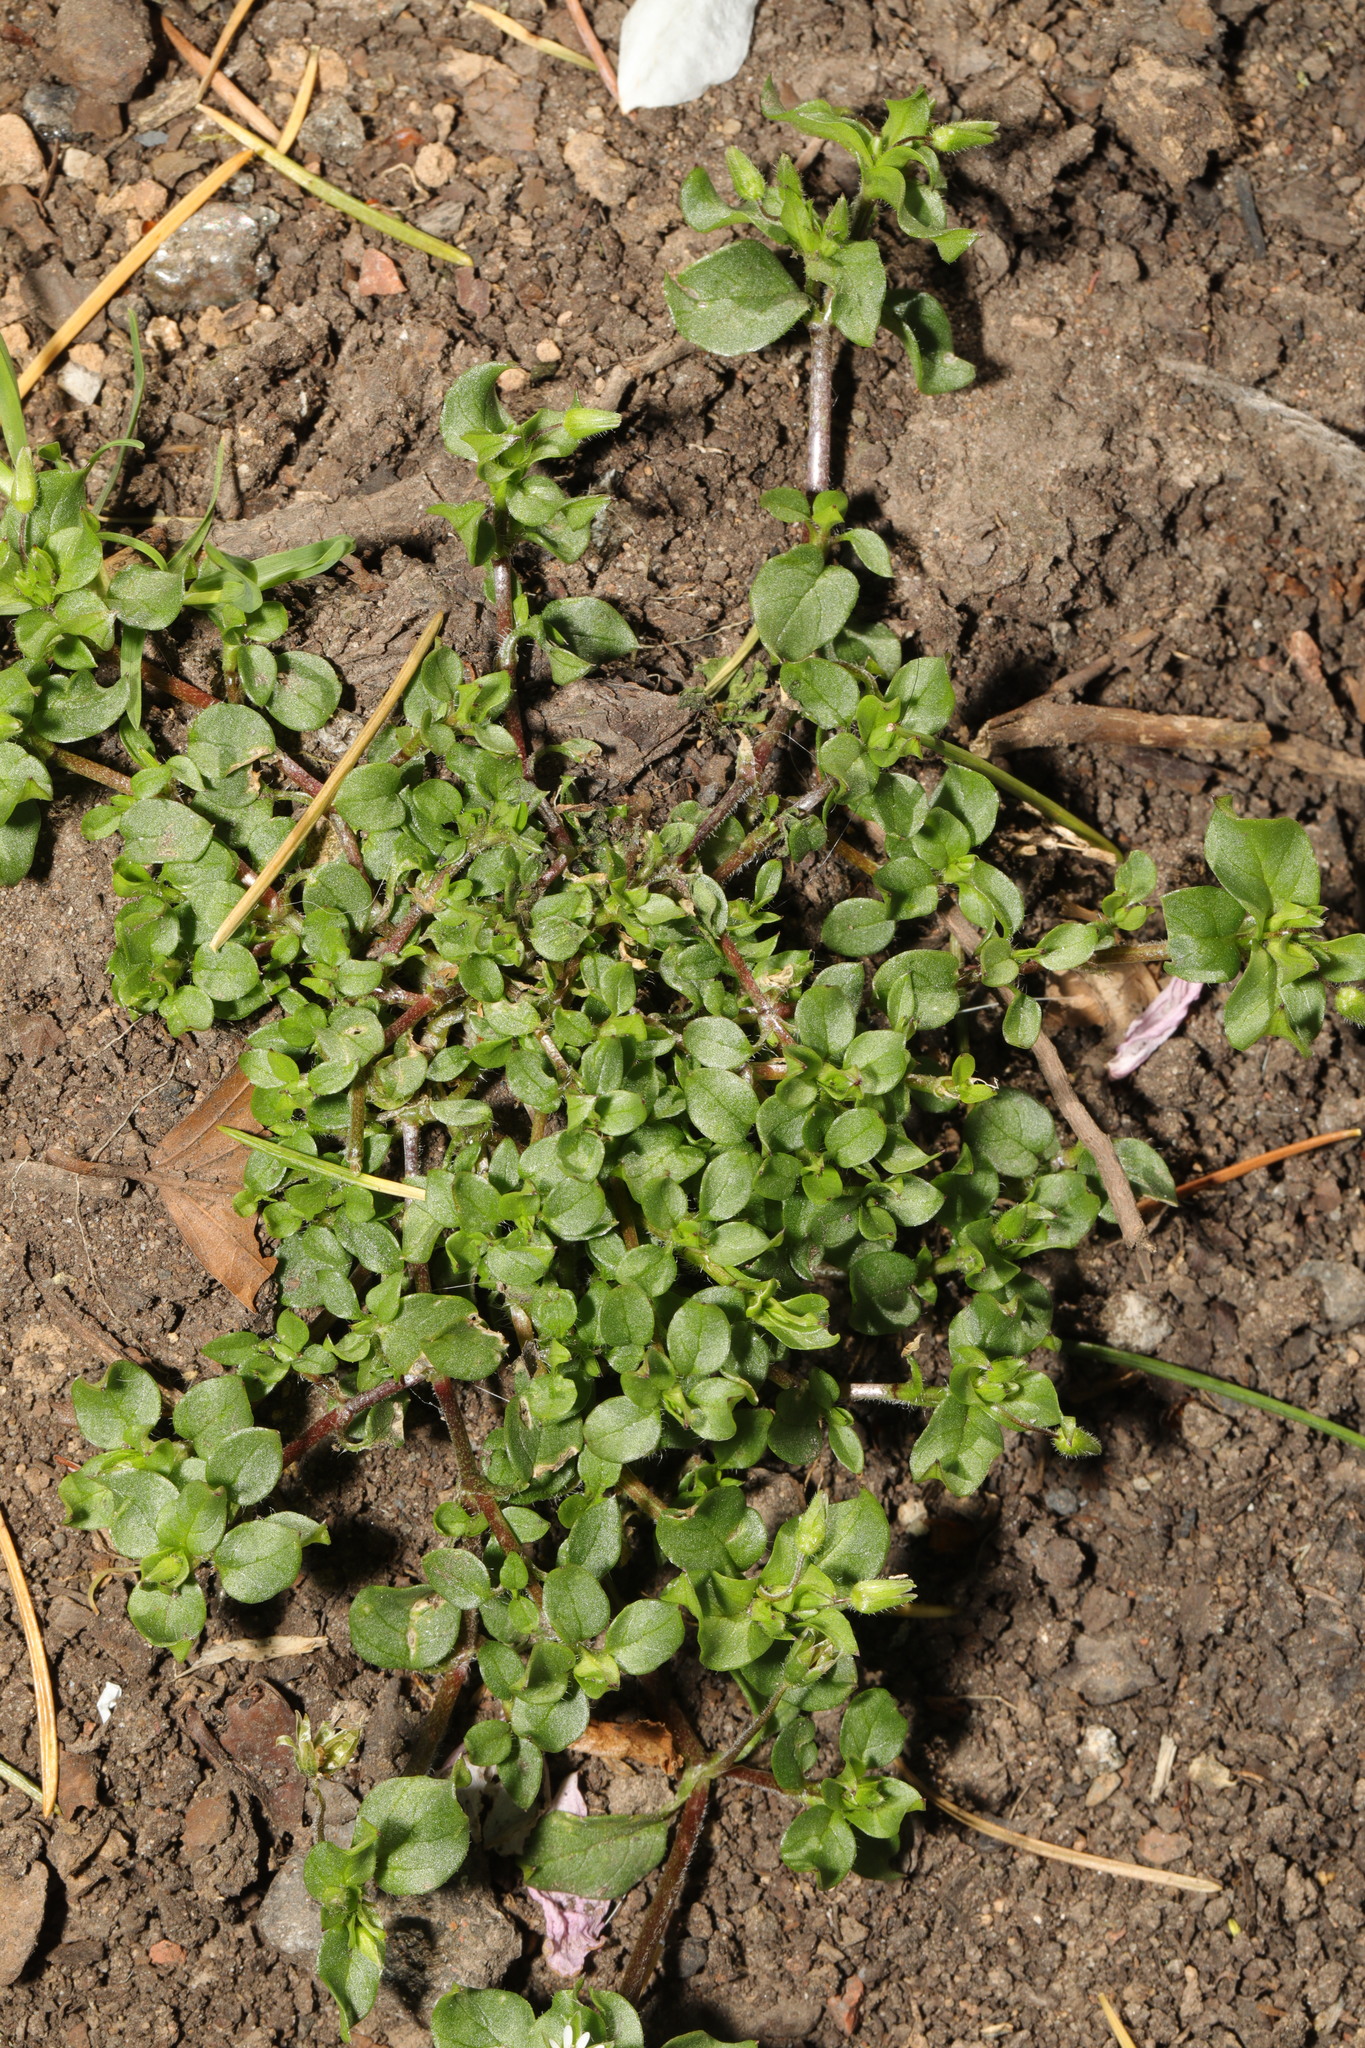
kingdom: Plantae
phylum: Tracheophyta
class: Magnoliopsida
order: Caryophyllales
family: Caryophyllaceae
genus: Stellaria
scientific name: Stellaria media
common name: Common chickweed
